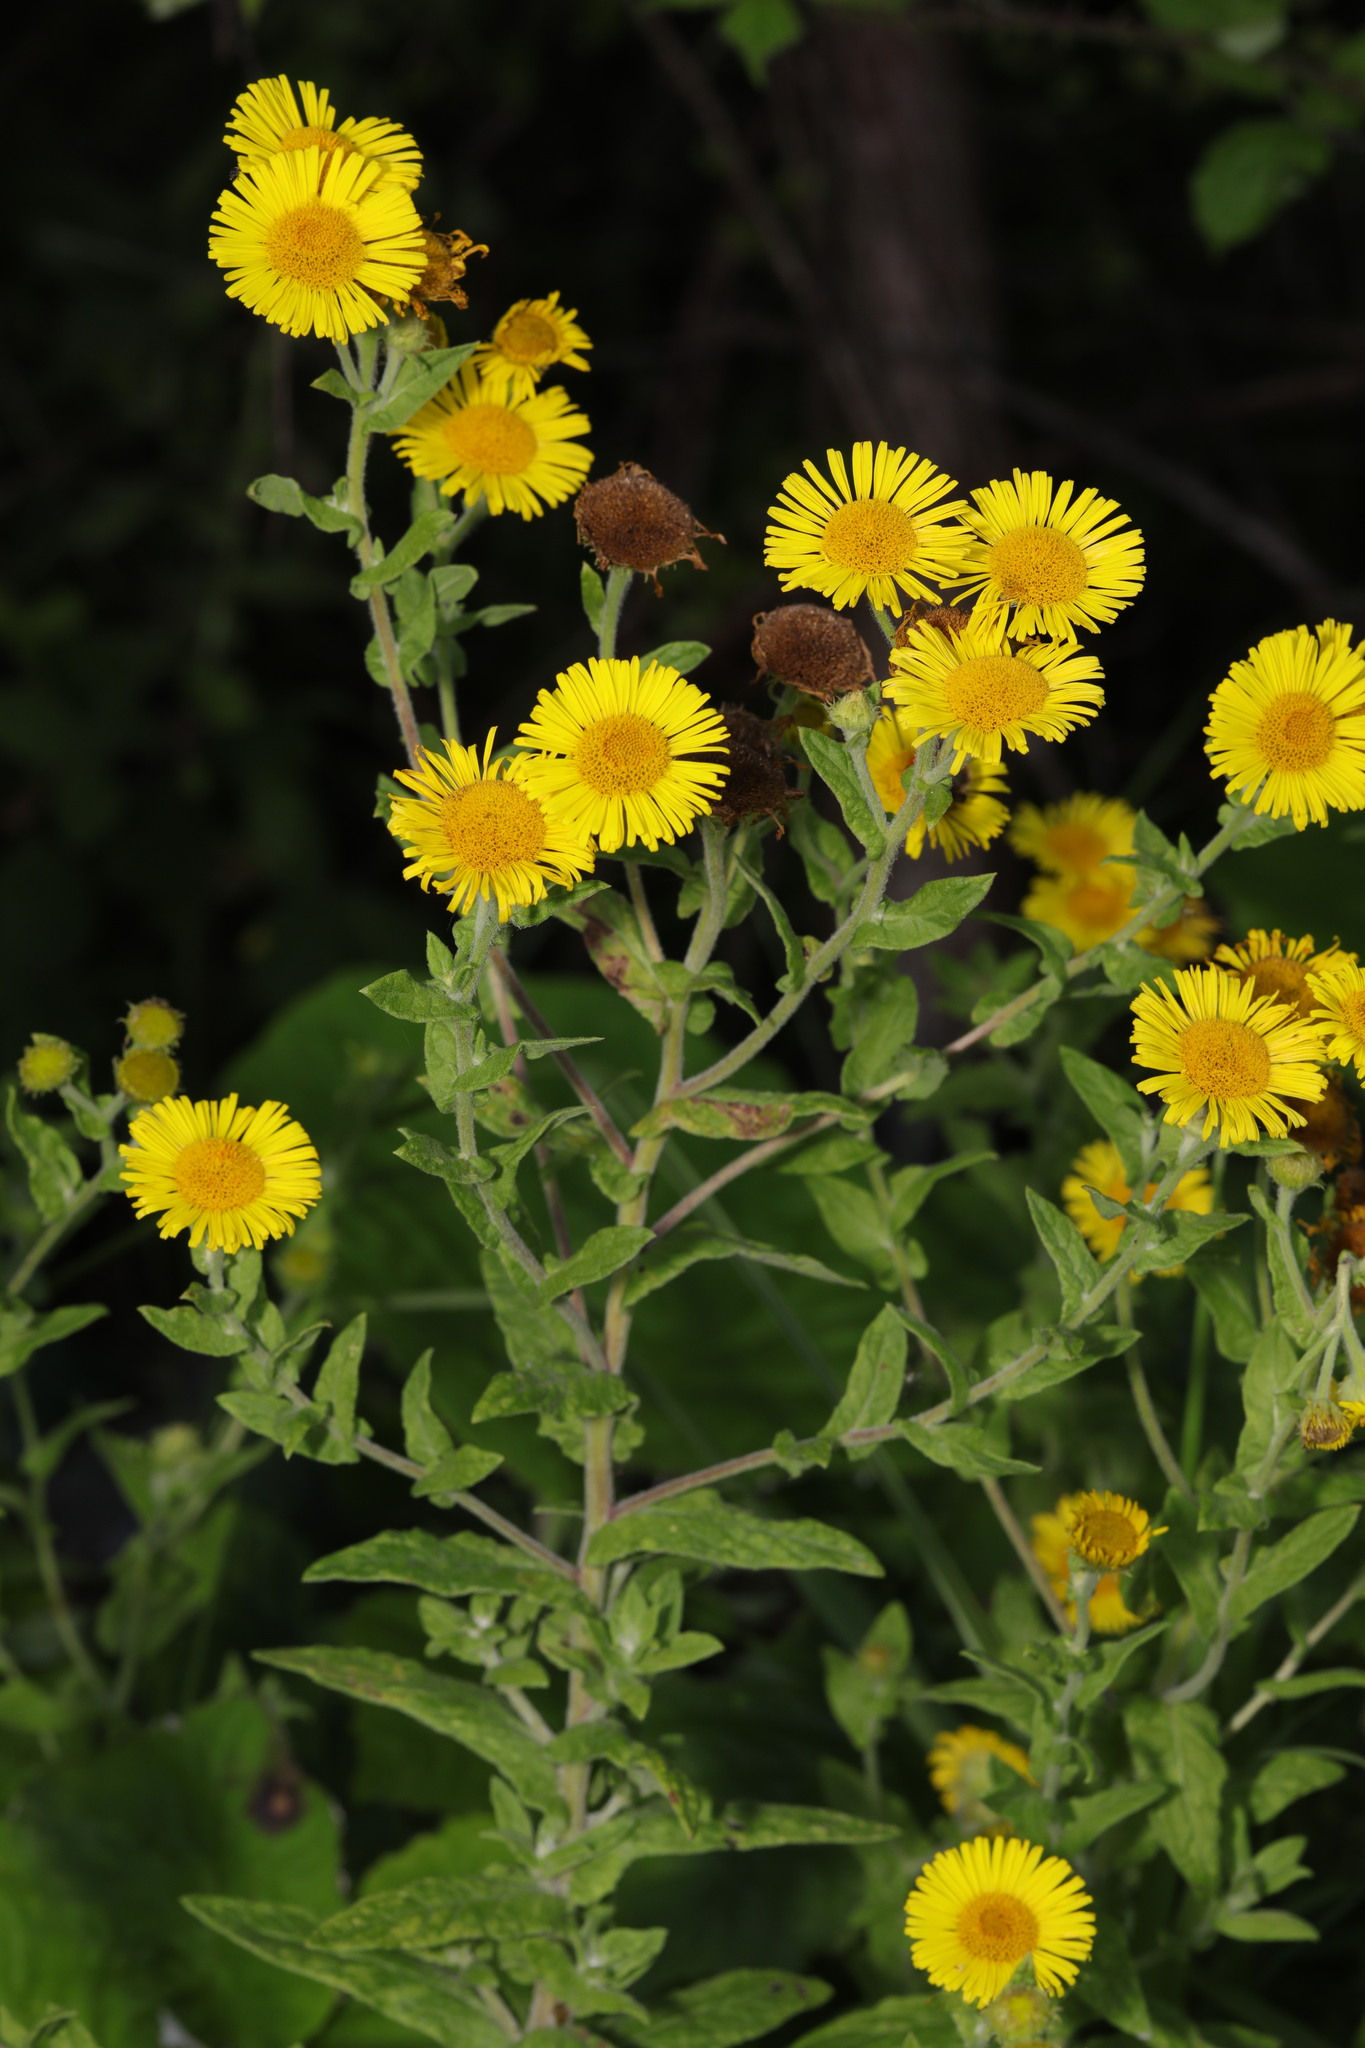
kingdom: Plantae
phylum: Tracheophyta
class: Magnoliopsida
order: Asterales
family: Asteraceae
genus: Pulicaria
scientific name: Pulicaria dysenterica
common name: Common fleabane
